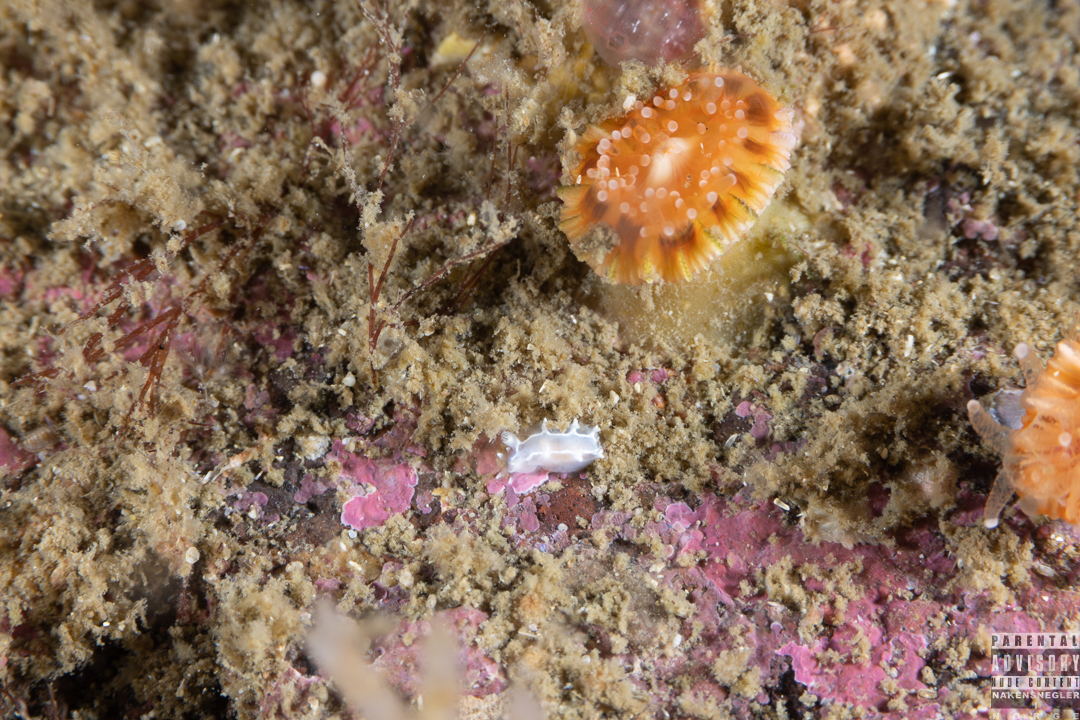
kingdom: Animalia
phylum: Mollusca
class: Gastropoda
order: Nudibranchia
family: Tritoniidae
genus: Duvaucelia
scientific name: Duvaucelia lineata
